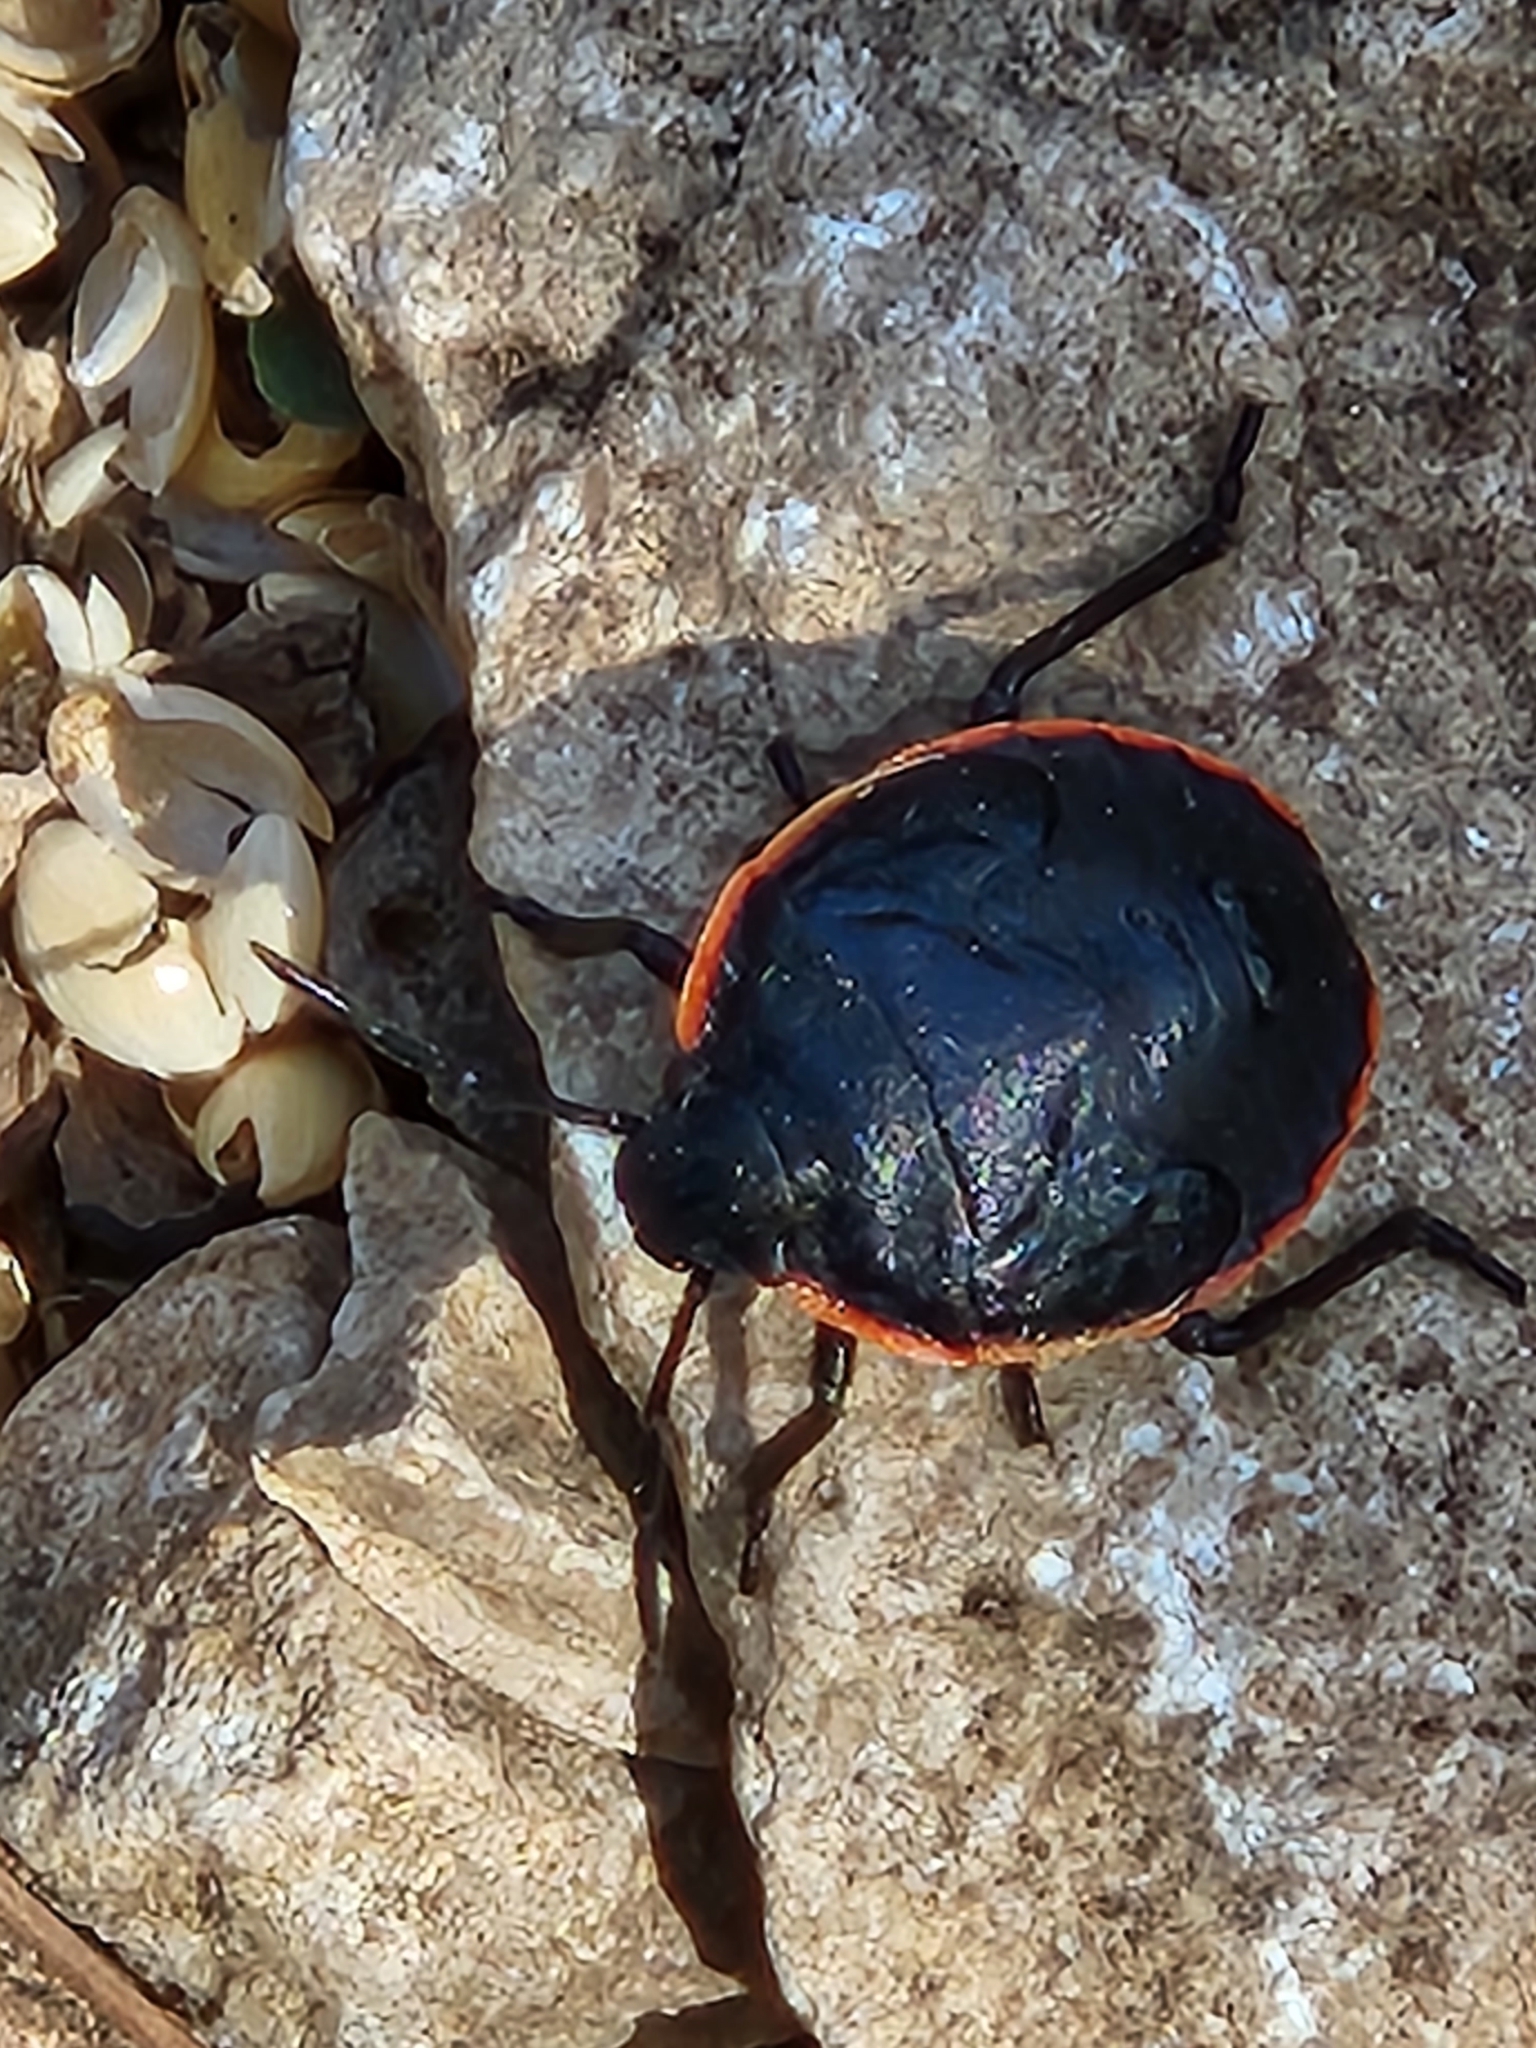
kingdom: Animalia
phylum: Arthropoda
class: Insecta
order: Hemiptera
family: Pentatomidae
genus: Chlorochroa
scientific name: Chlorochroa ligata
